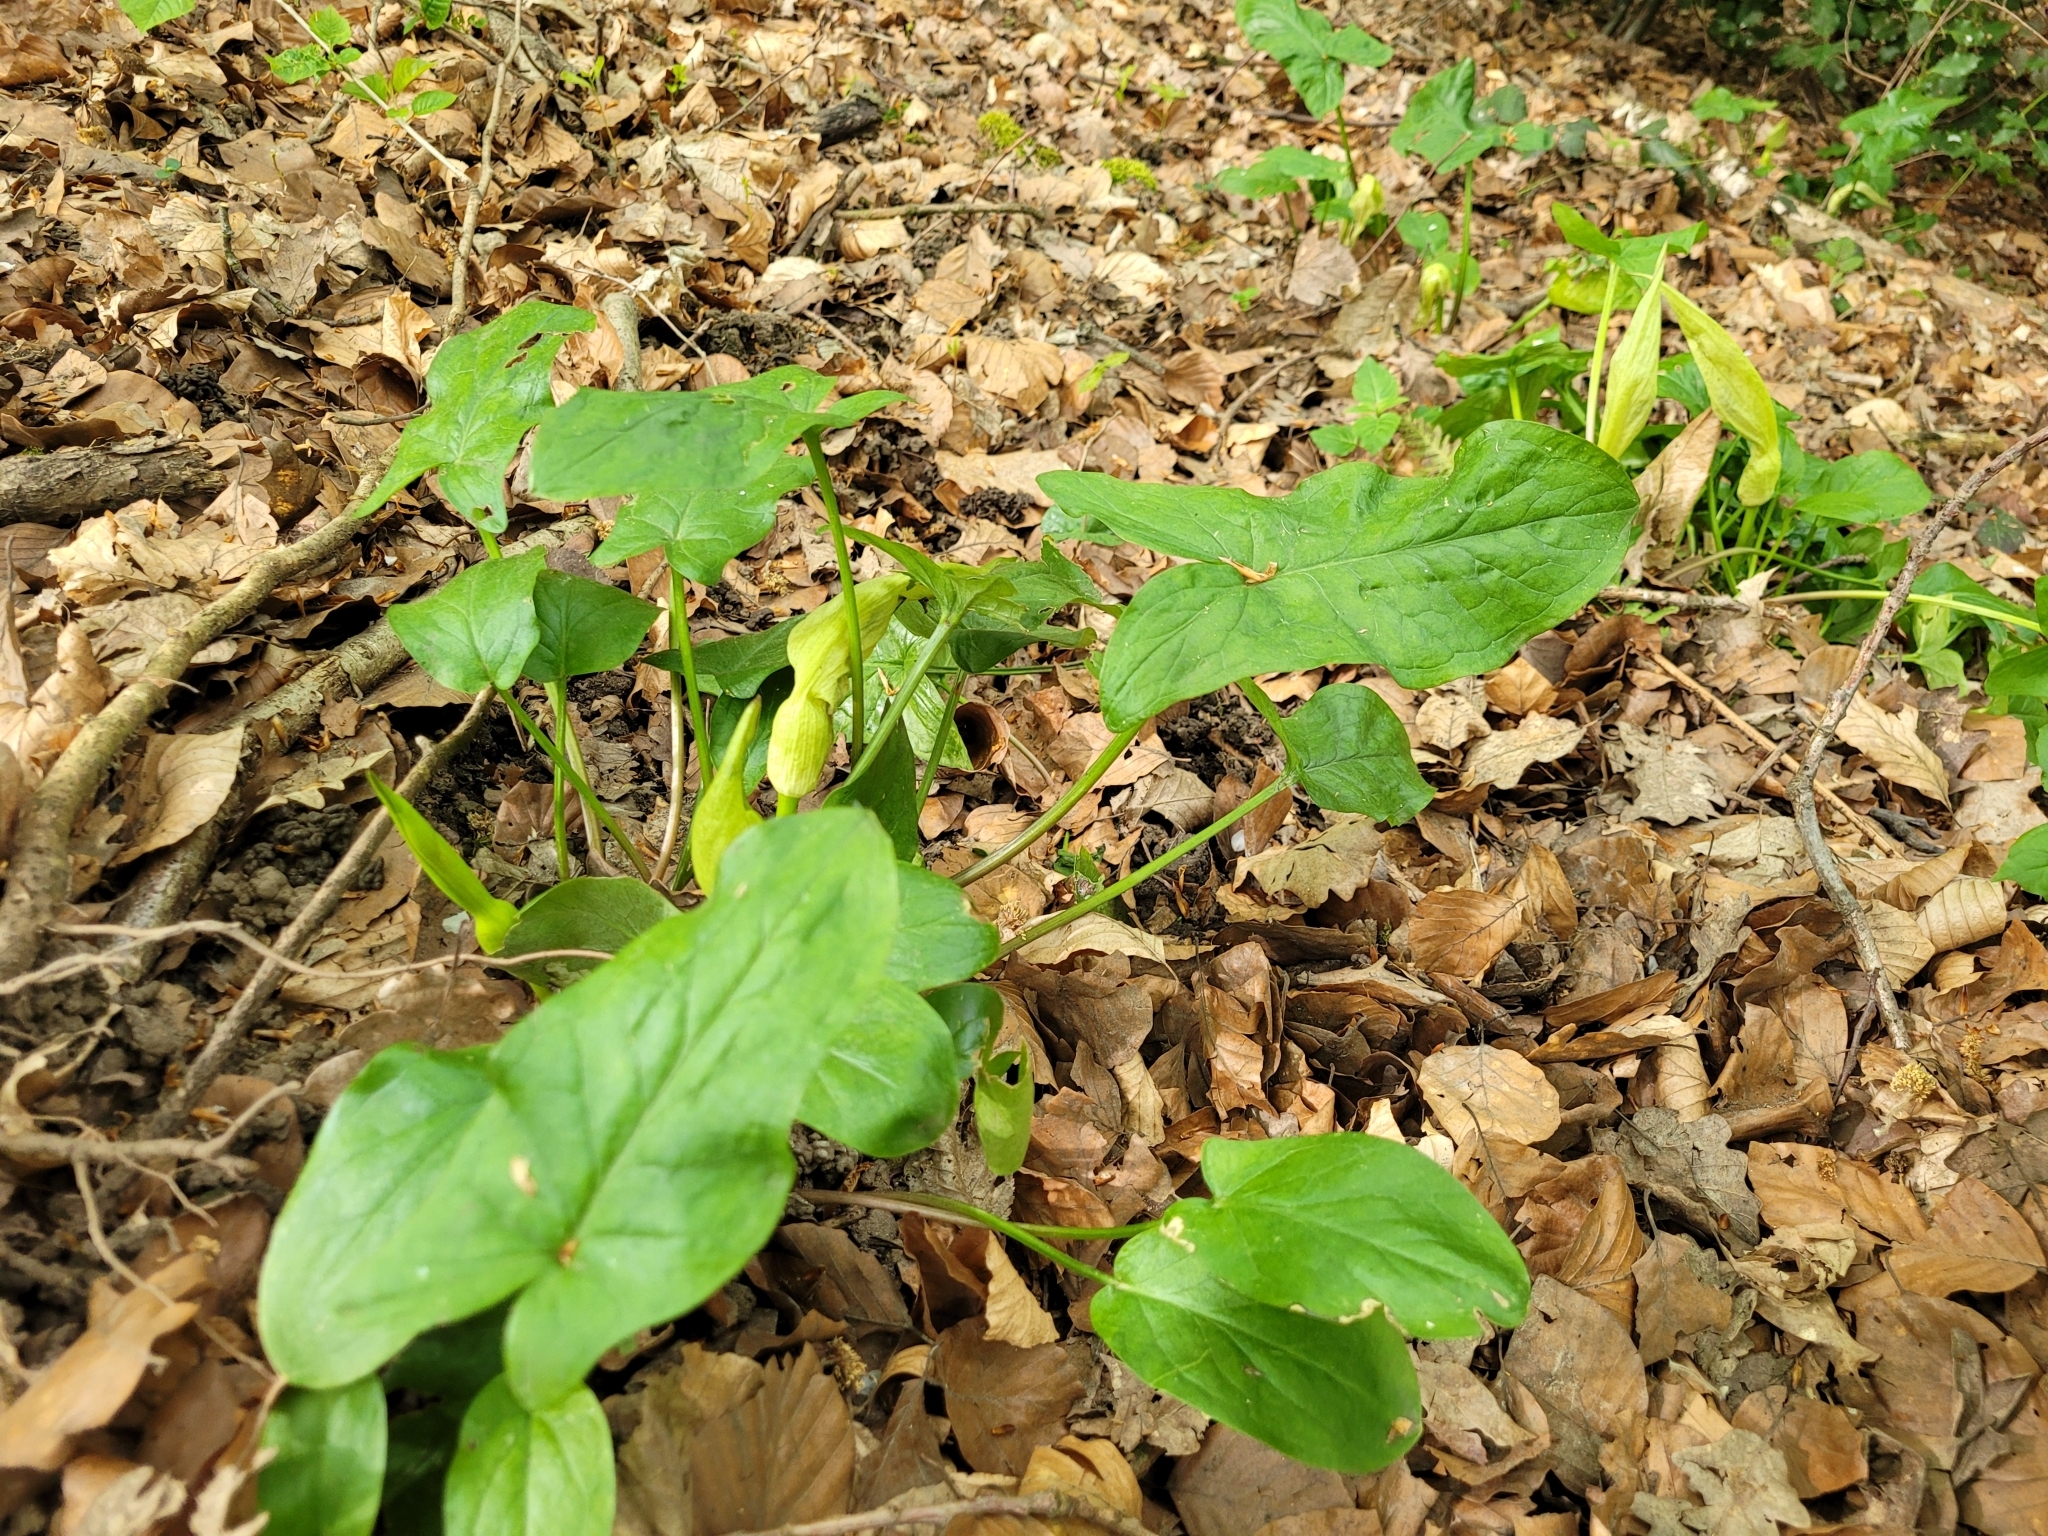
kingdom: Plantae
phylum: Tracheophyta
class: Liliopsida
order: Alismatales
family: Araceae
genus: Arum
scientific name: Arum maculatum
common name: Lords-and-ladies
